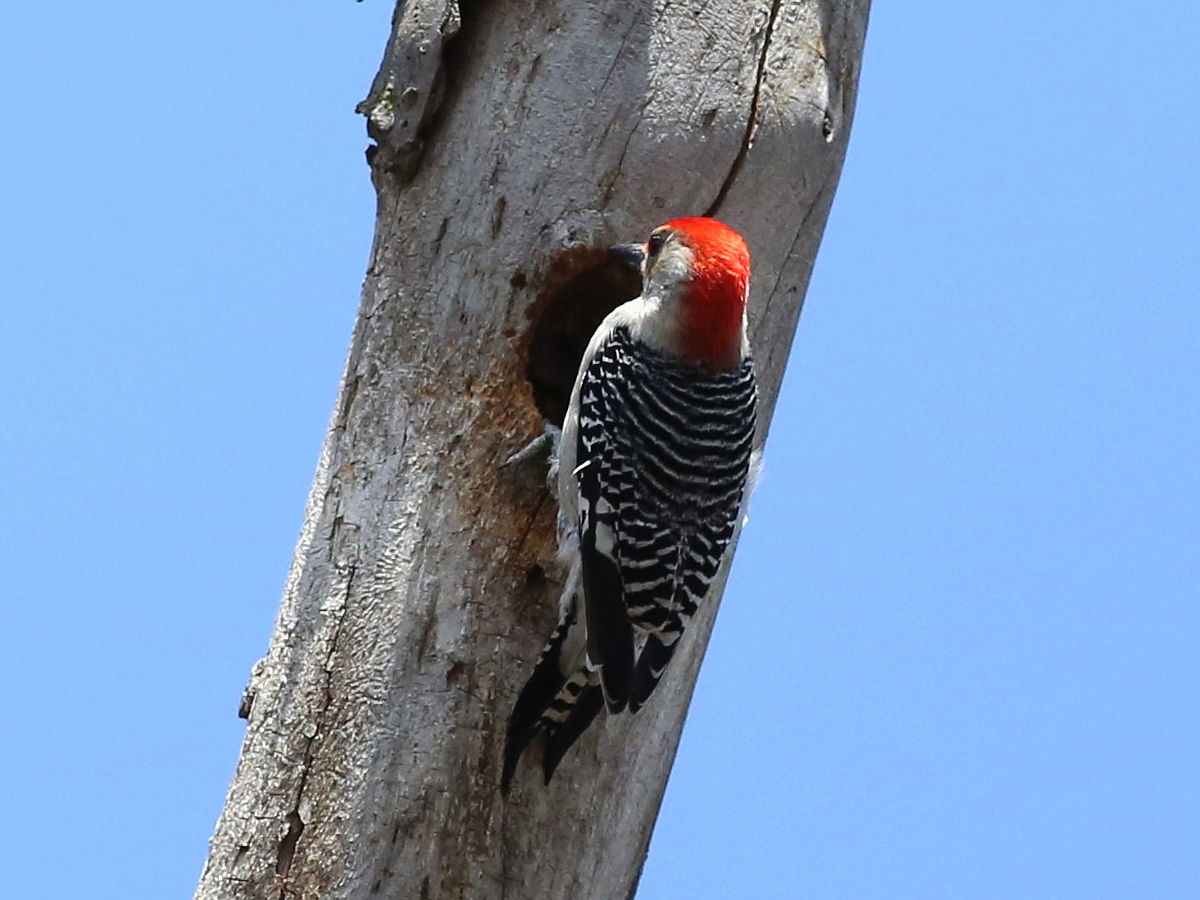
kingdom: Animalia
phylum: Chordata
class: Aves
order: Piciformes
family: Picidae
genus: Melanerpes
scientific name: Melanerpes carolinus
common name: Red-bellied woodpecker
